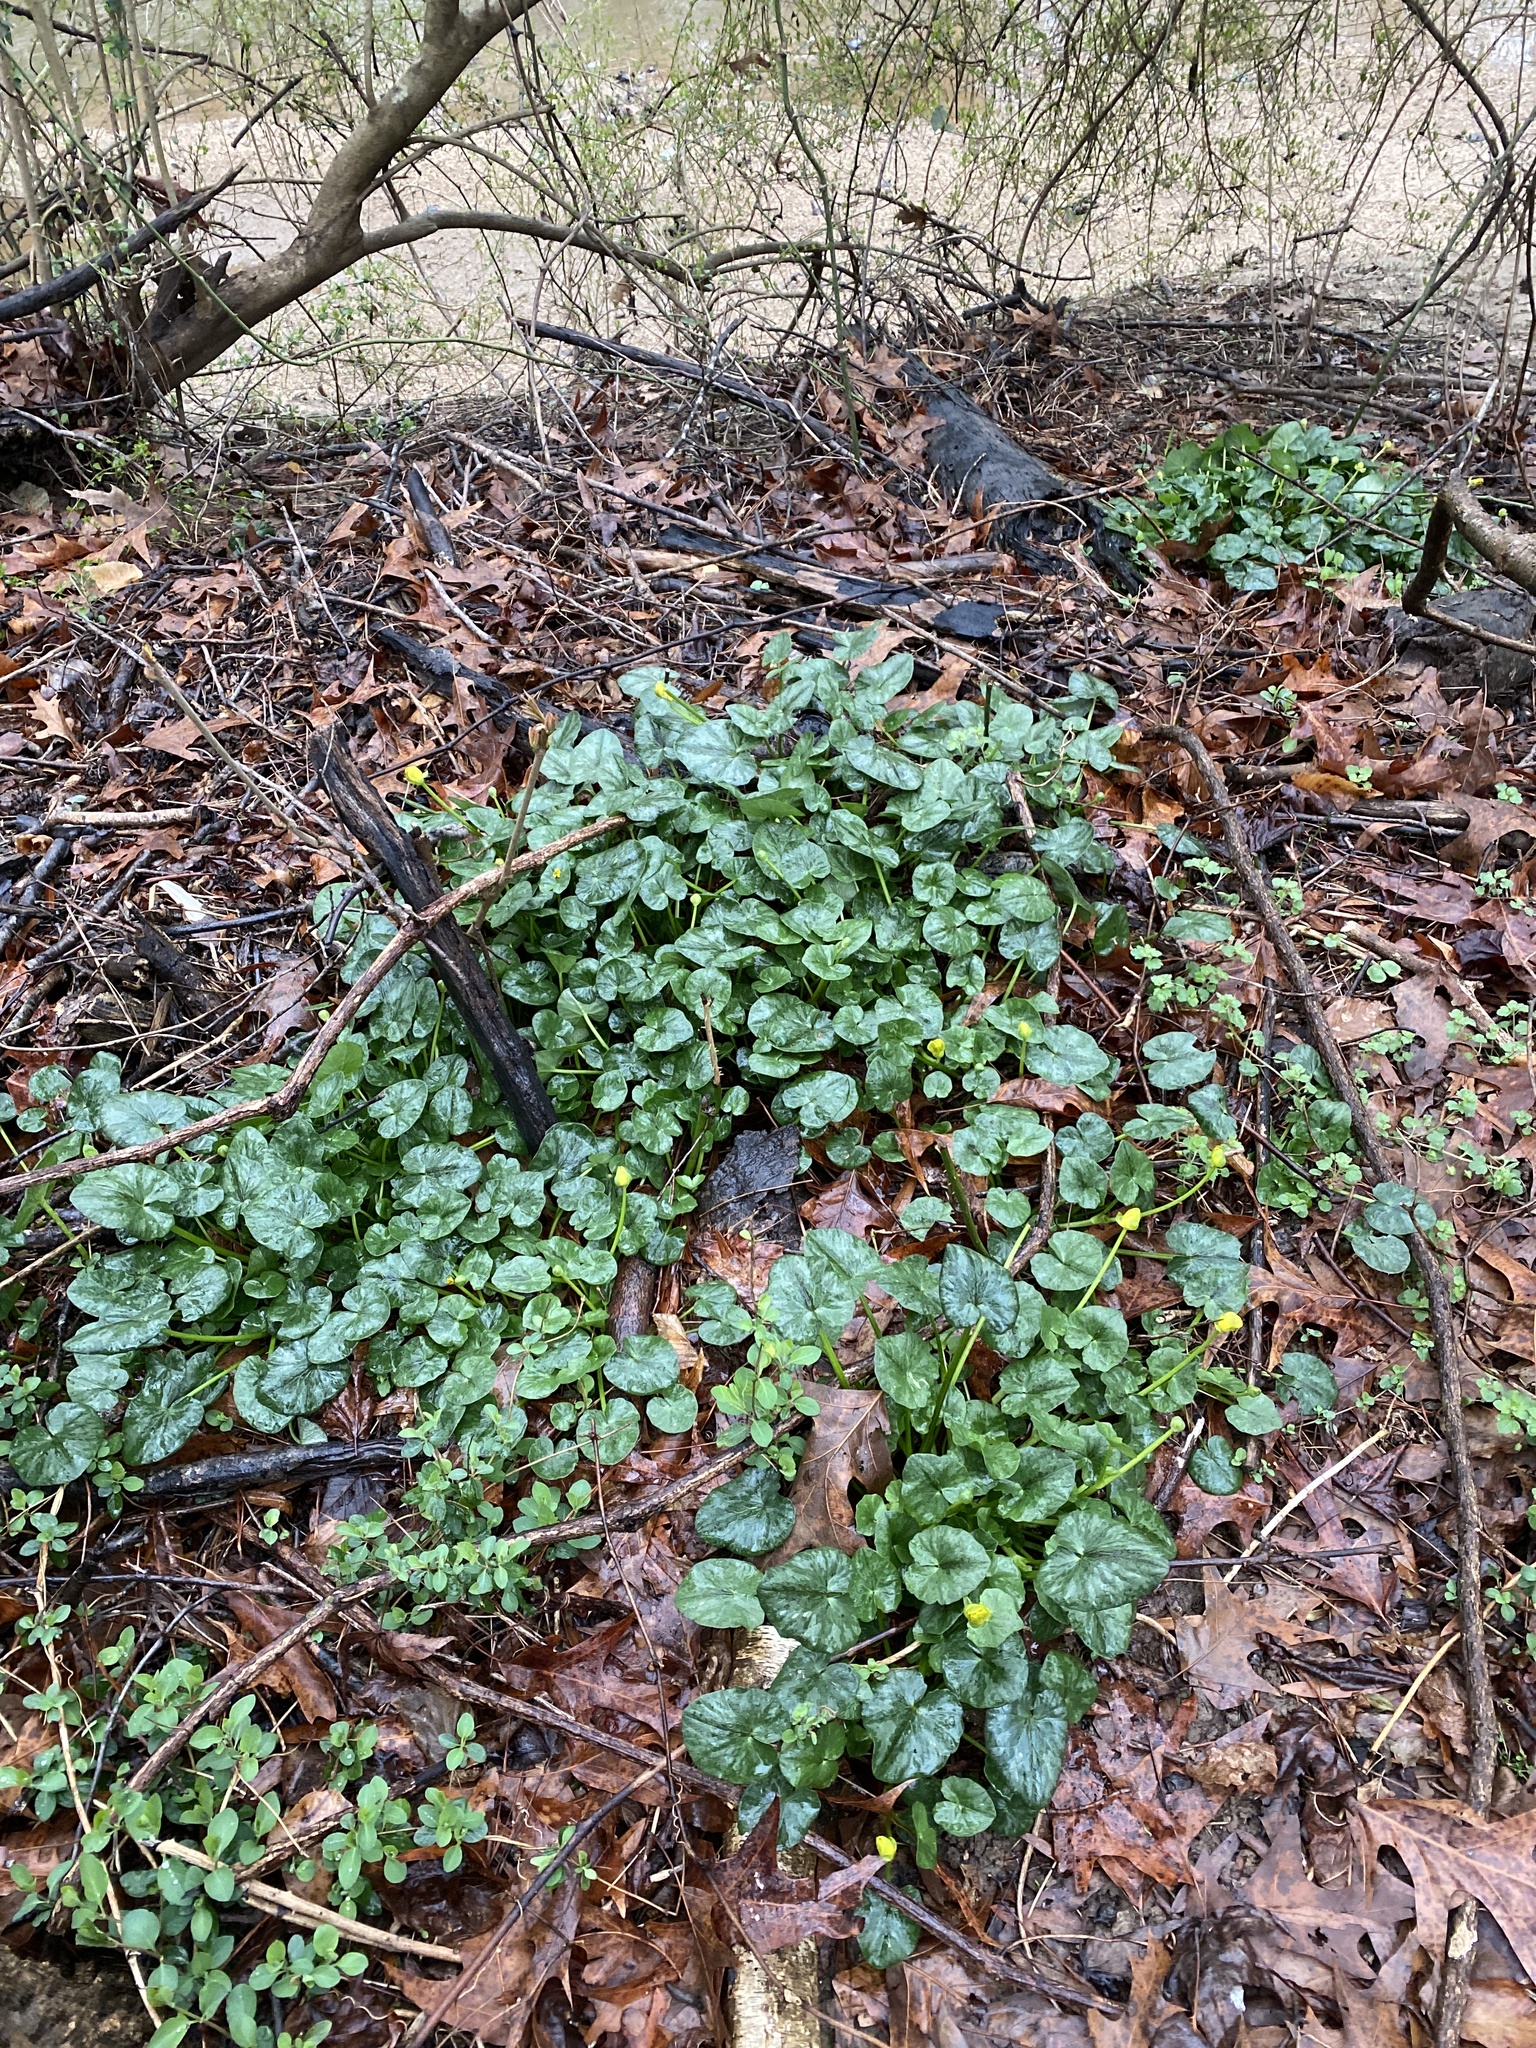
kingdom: Plantae
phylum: Tracheophyta
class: Magnoliopsida
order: Ranunculales
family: Ranunculaceae
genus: Ficaria
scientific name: Ficaria verna
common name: Lesser celandine
